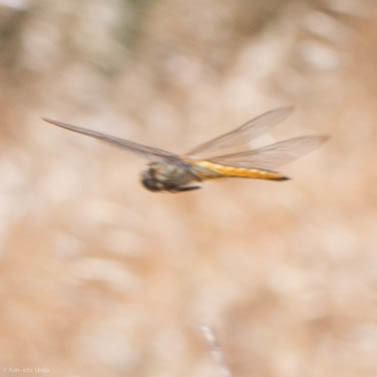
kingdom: Animalia
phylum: Arthropoda
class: Insecta
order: Odonata
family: Libellulidae
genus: Pantala
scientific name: Pantala flavescens
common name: Wandering glider
